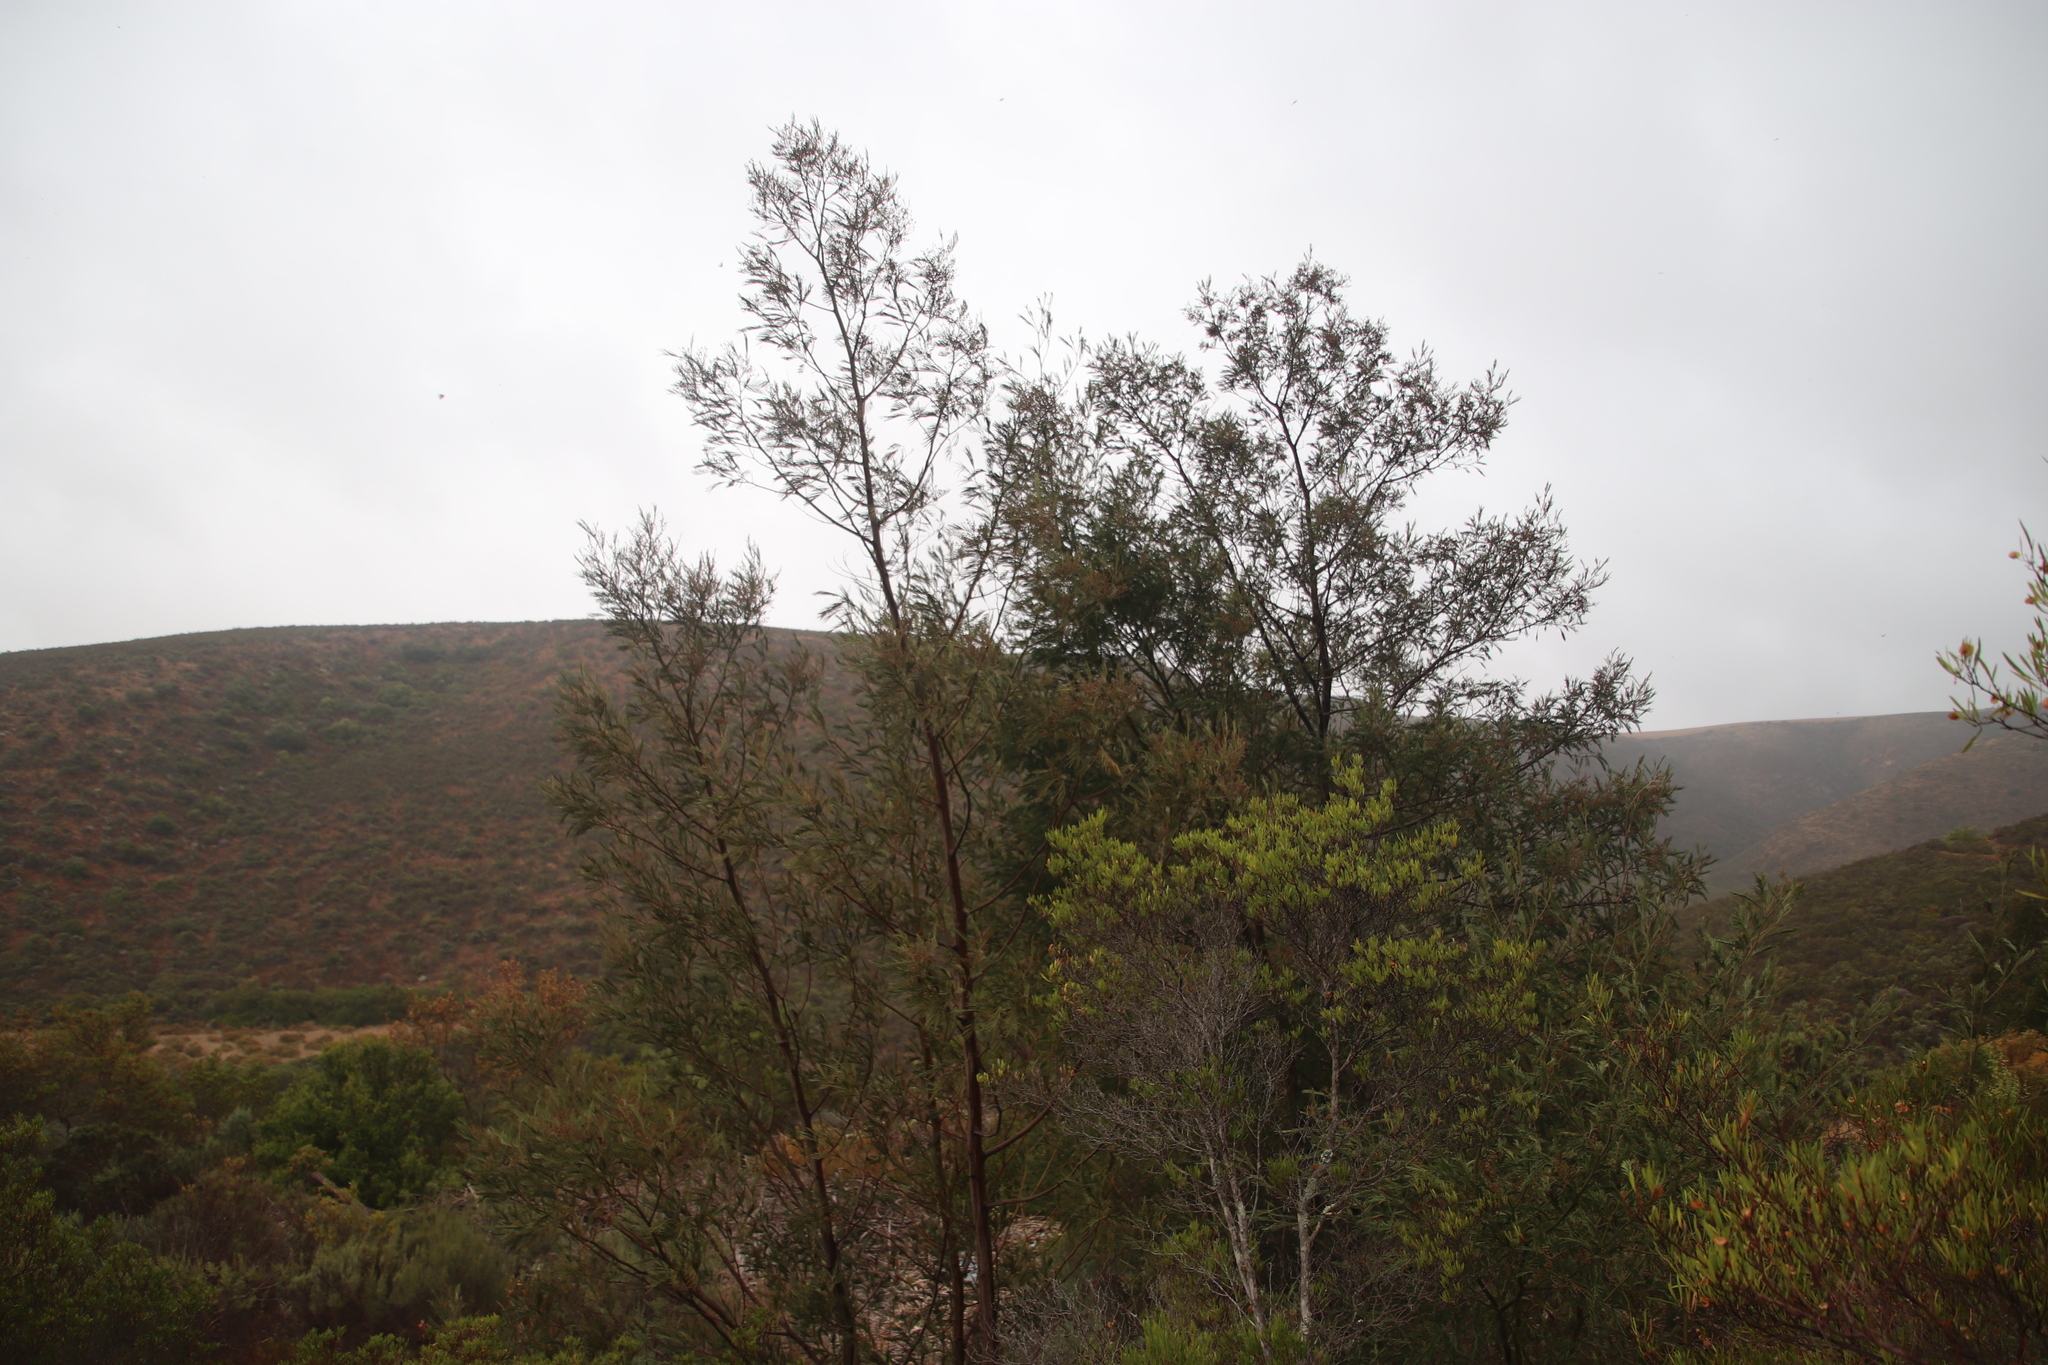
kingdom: Animalia
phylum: Arthropoda
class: Insecta
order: Diptera
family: Cecidomyiidae
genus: Dasineura
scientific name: Dasineura rubiformis
